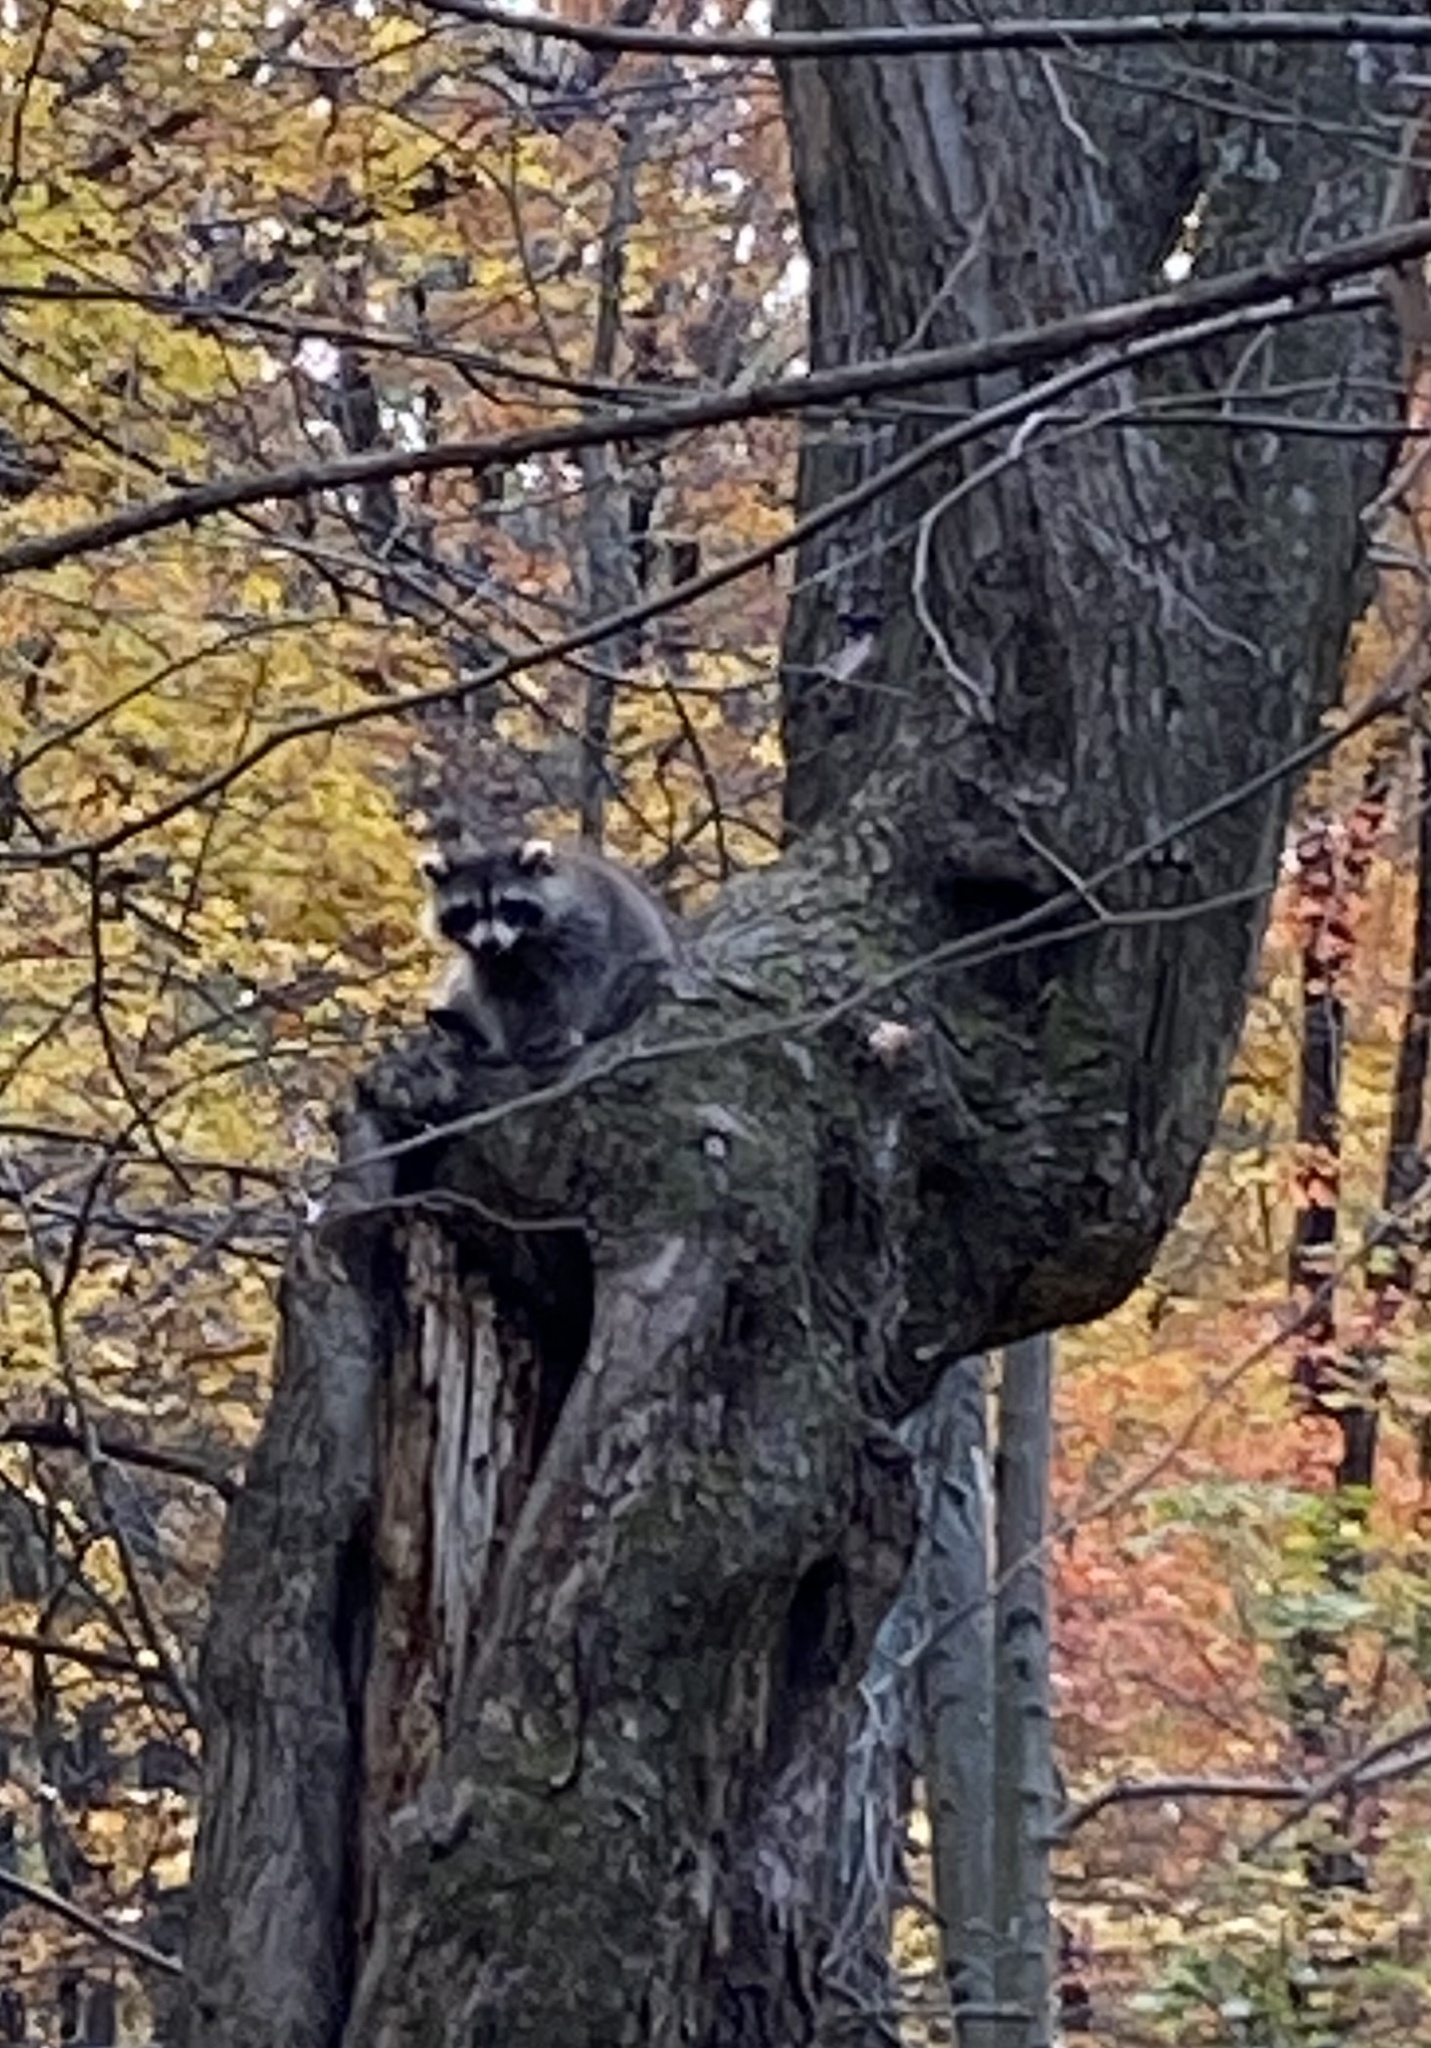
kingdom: Animalia
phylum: Chordata
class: Mammalia
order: Carnivora
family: Procyonidae
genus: Procyon
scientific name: Procyon lotor
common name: Raccoon
